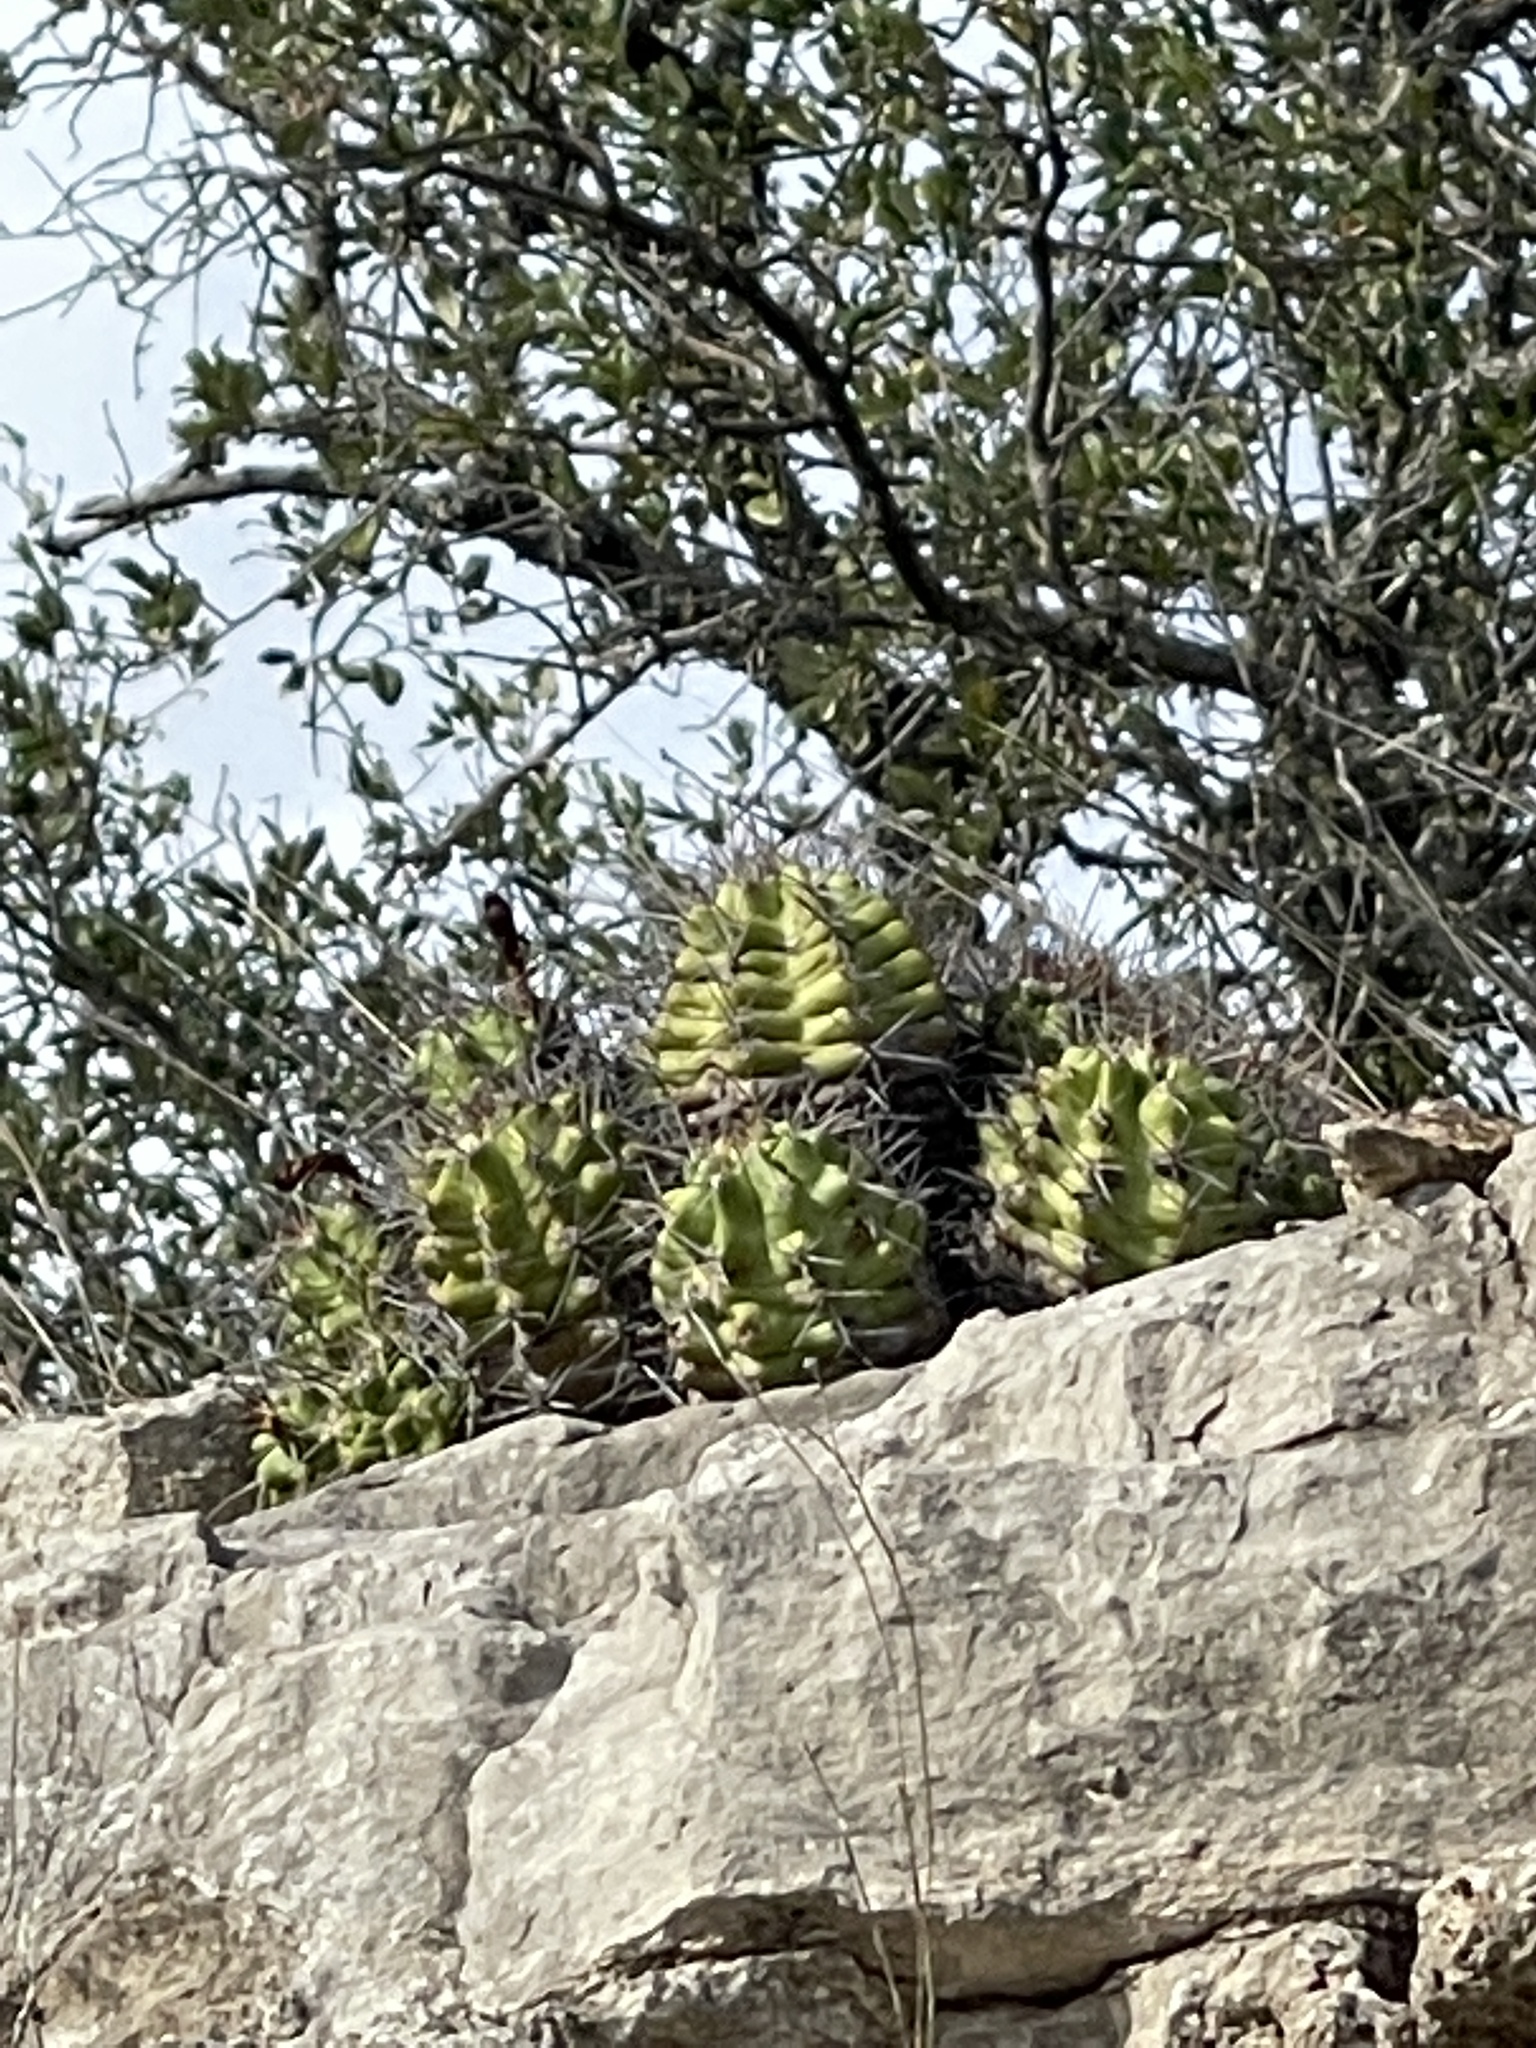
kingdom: Plantae
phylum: Tracheophyta
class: Magnoliopsida
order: Caryophyllales
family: Cactaceae
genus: Echinocereus
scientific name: Echinocereus coccineus
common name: Scarlet hedgehog cactus
